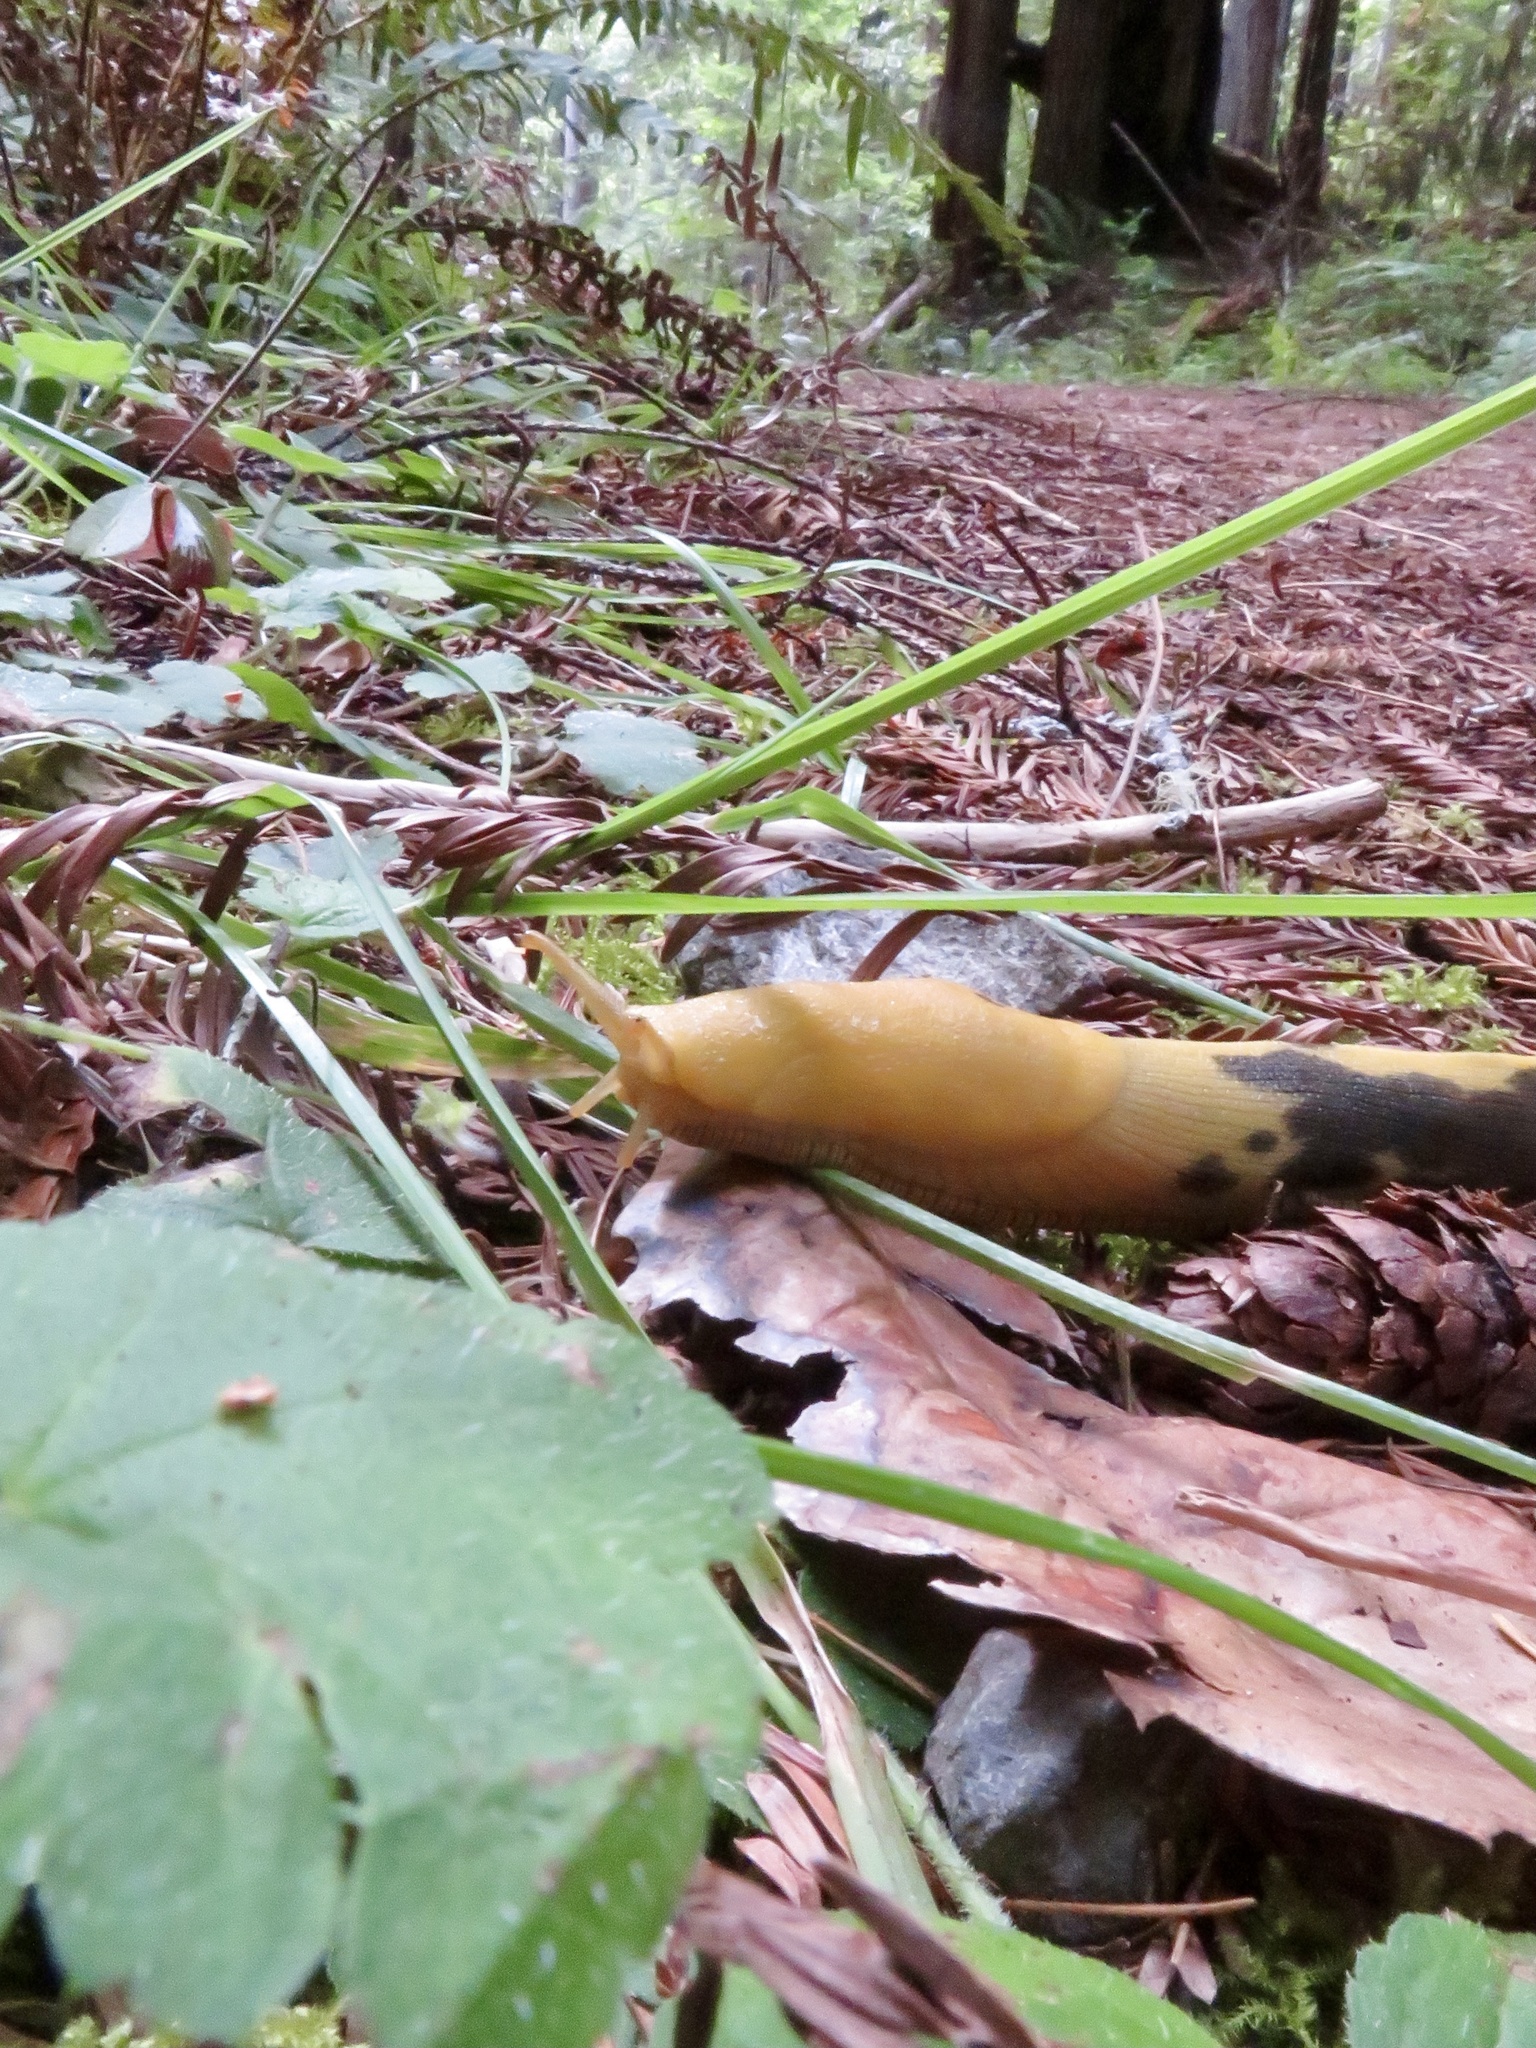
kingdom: Animalia
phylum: Mollusca
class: Gastropoda
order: Stylommatophora
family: Ariolimacidae
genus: Ariolimax
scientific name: Ariolimax buttoni
